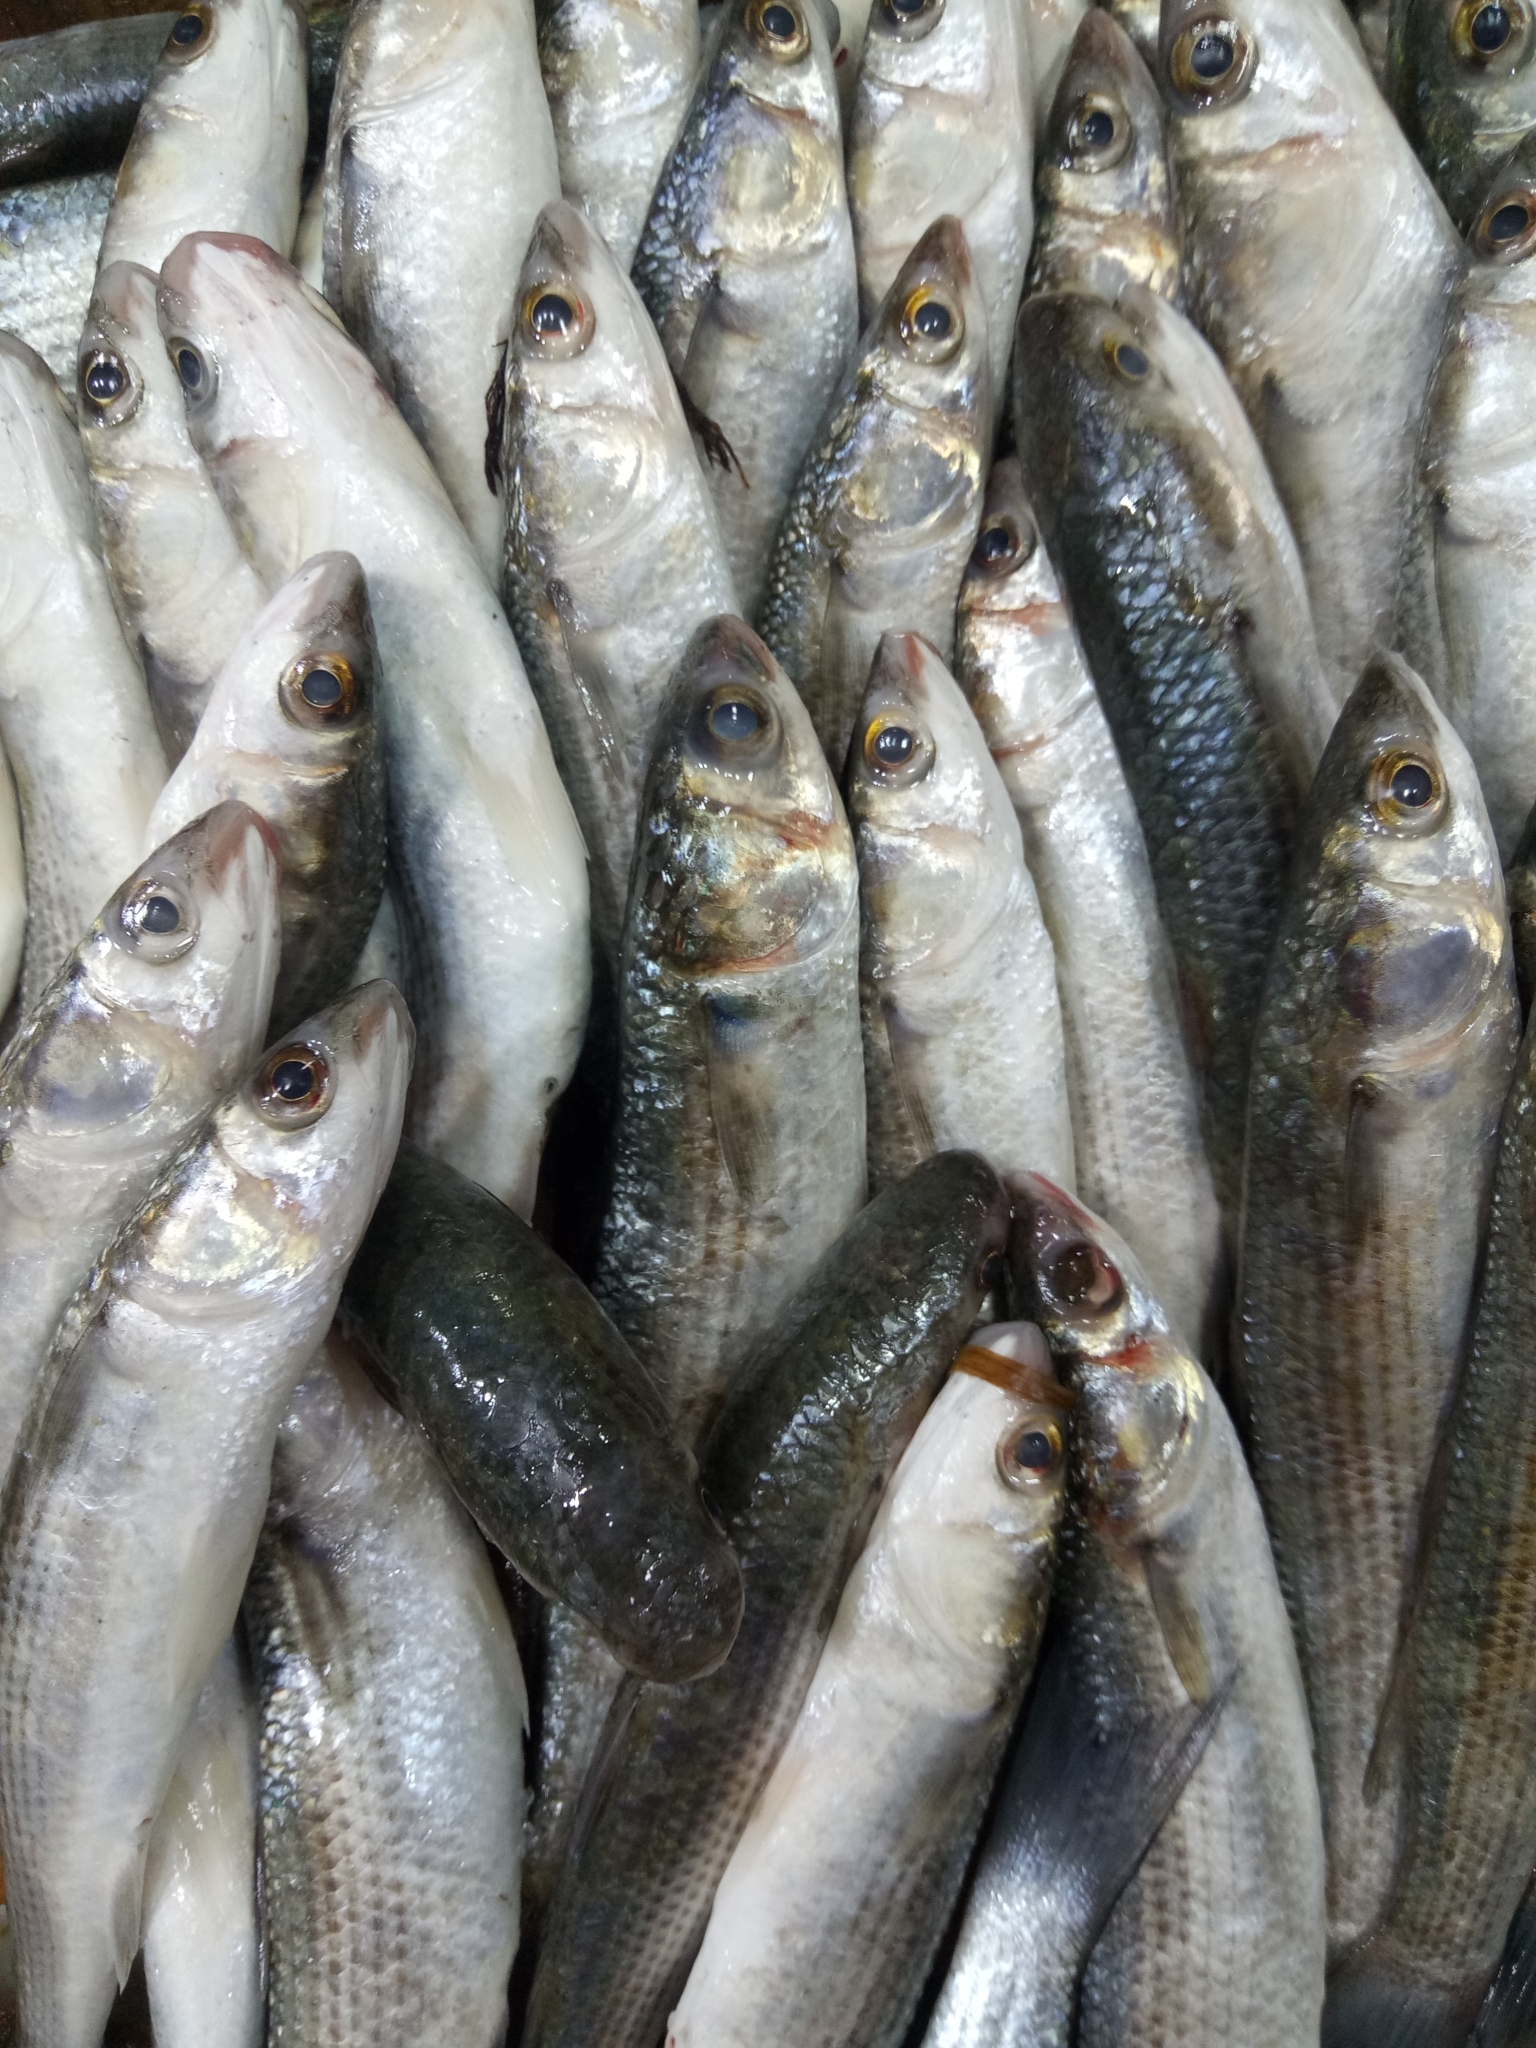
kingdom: Animalia
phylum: Chordata
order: Mugiliformes
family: Mugilidae
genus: Chelon
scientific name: Chelon ramada
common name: Thinlip grey mullet
